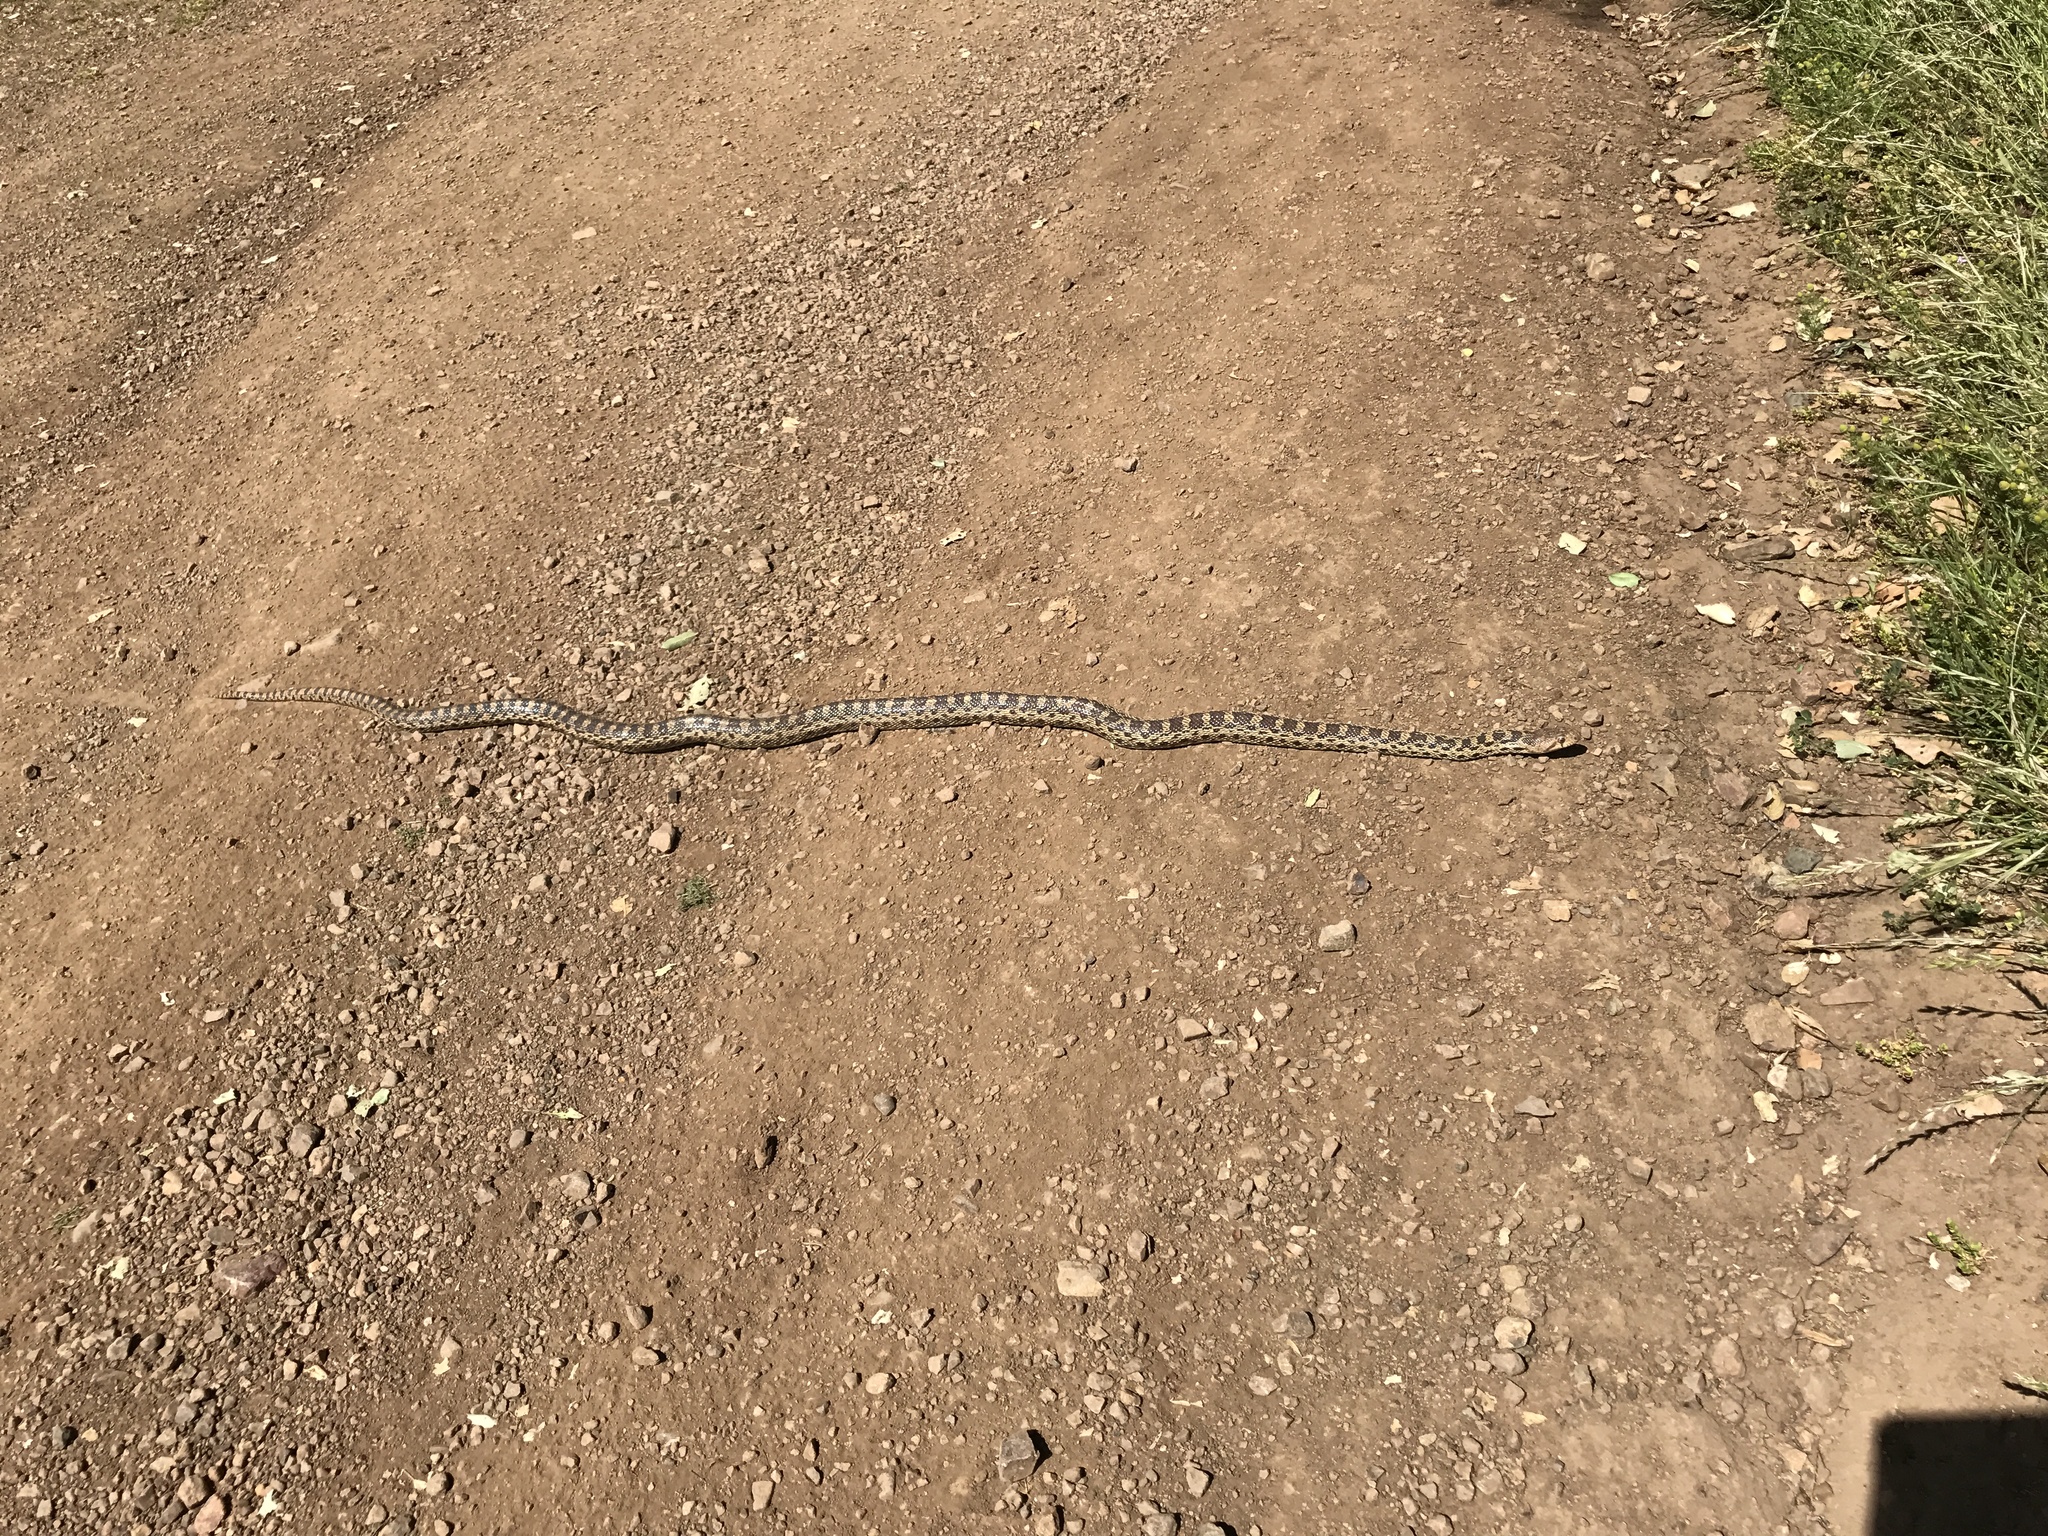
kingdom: Animalia
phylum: Chordata
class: Squamata
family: Colubridae
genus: Pituophis
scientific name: Pituophis catenifer
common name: Gopher snake
